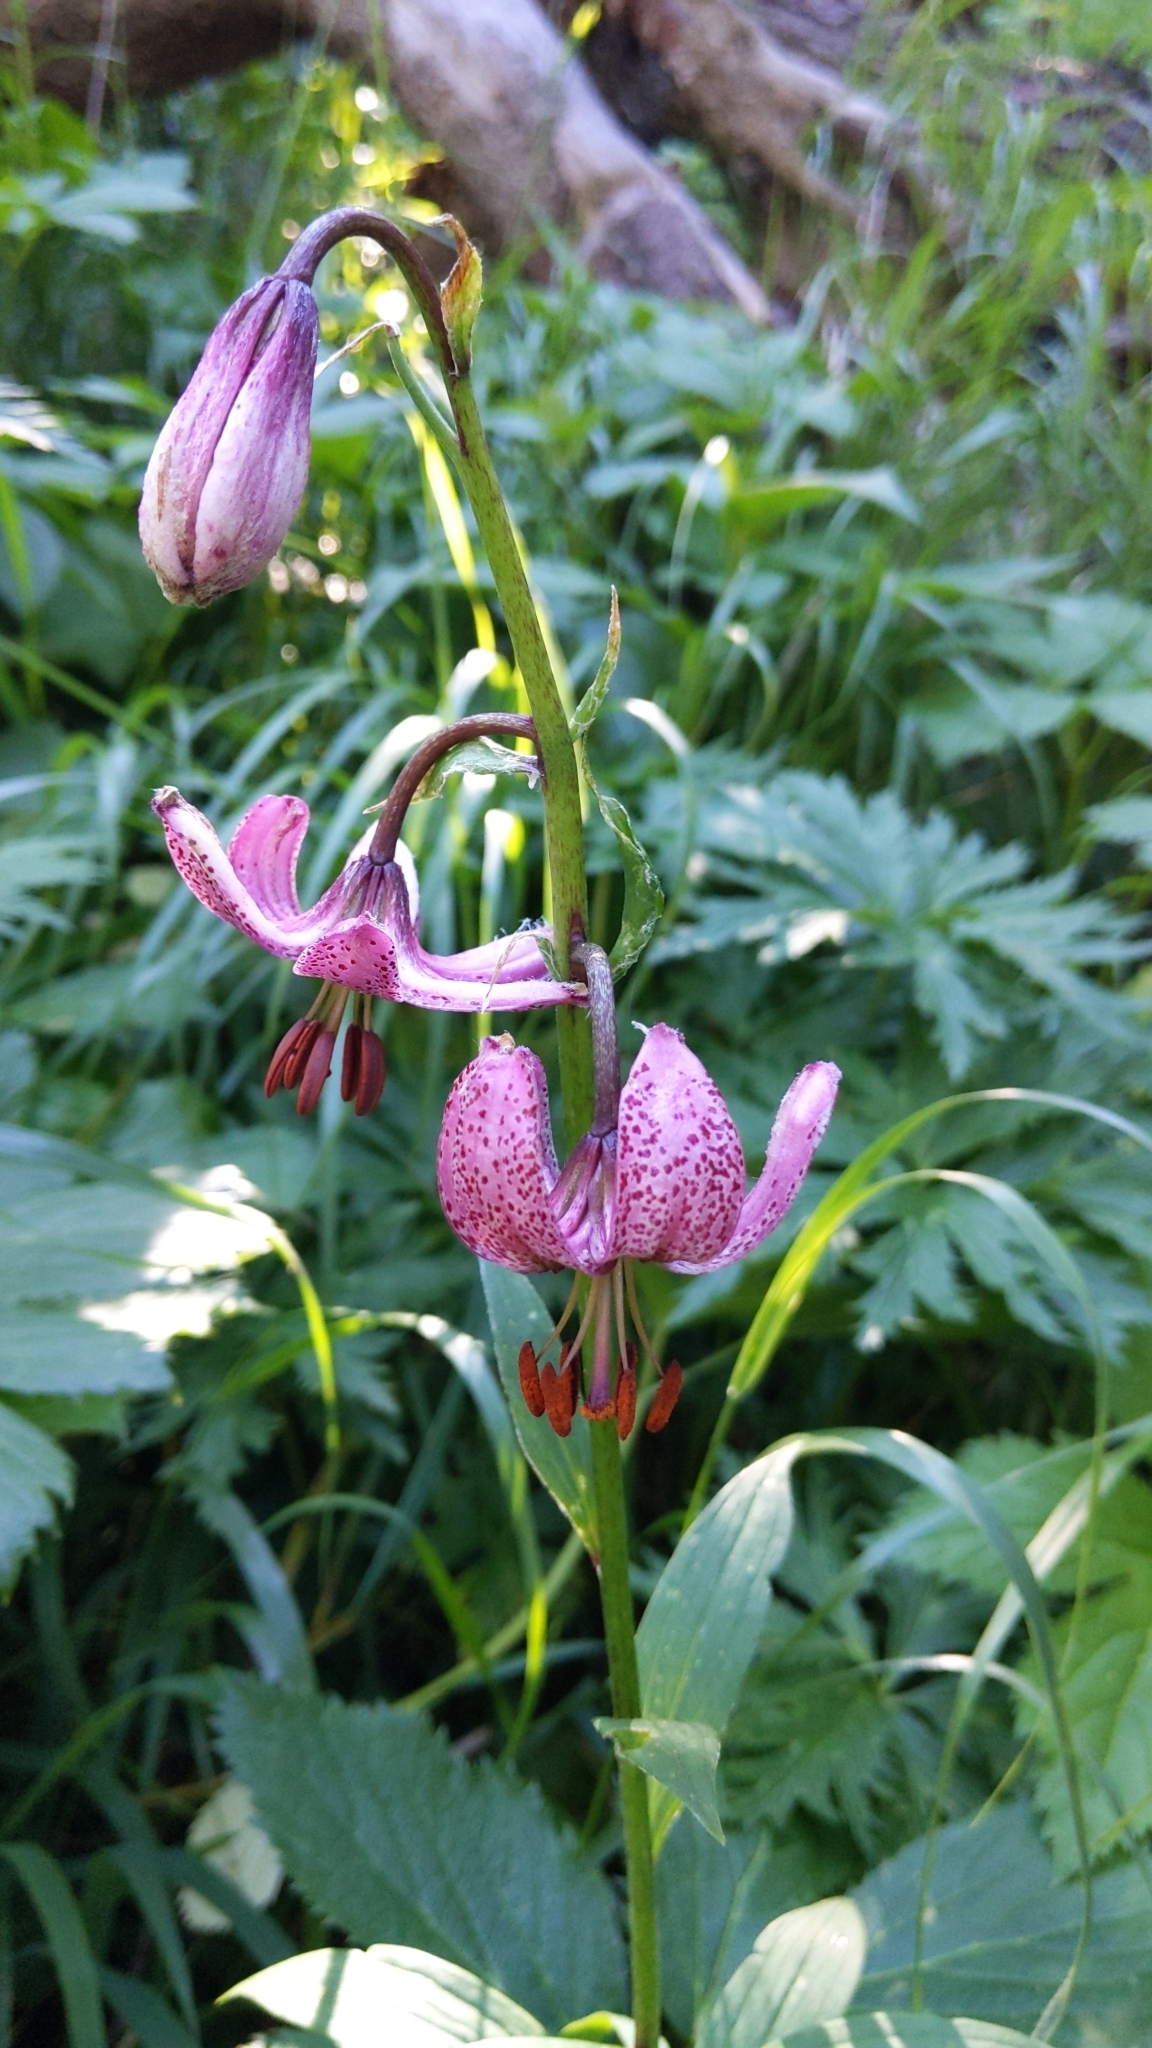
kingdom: Plantae
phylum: Tracheophyta
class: Liliopsida
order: Liliales
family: Liliaceae
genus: Lilium
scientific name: Lilium martagon
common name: Martagon lily
